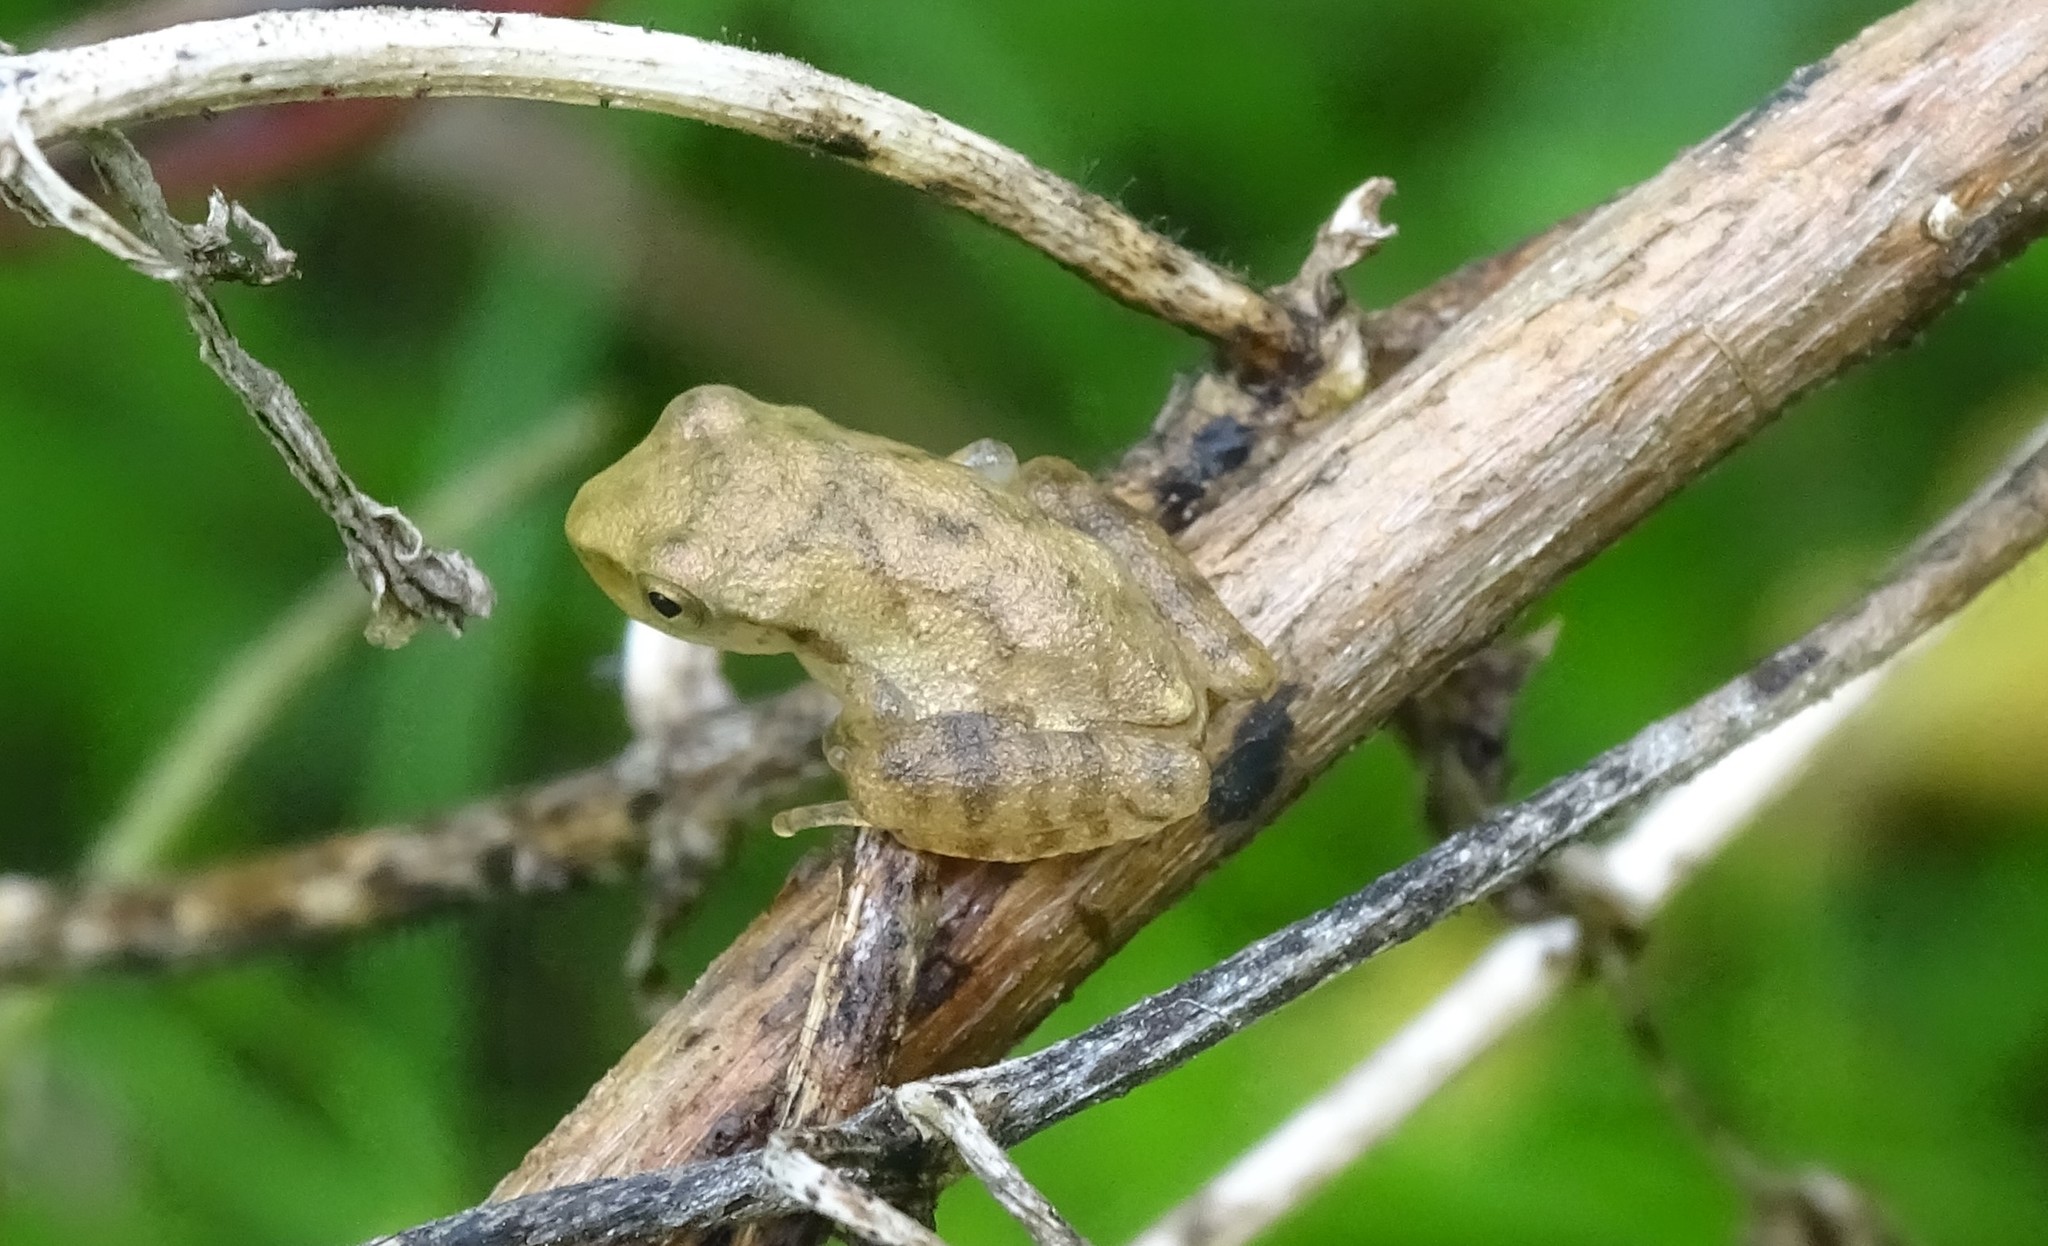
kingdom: Animalia
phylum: Chordata
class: Amphibia
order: Anura
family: Hylidae
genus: Pseudacris
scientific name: Pseudacris crucifer
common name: Spring peeper
